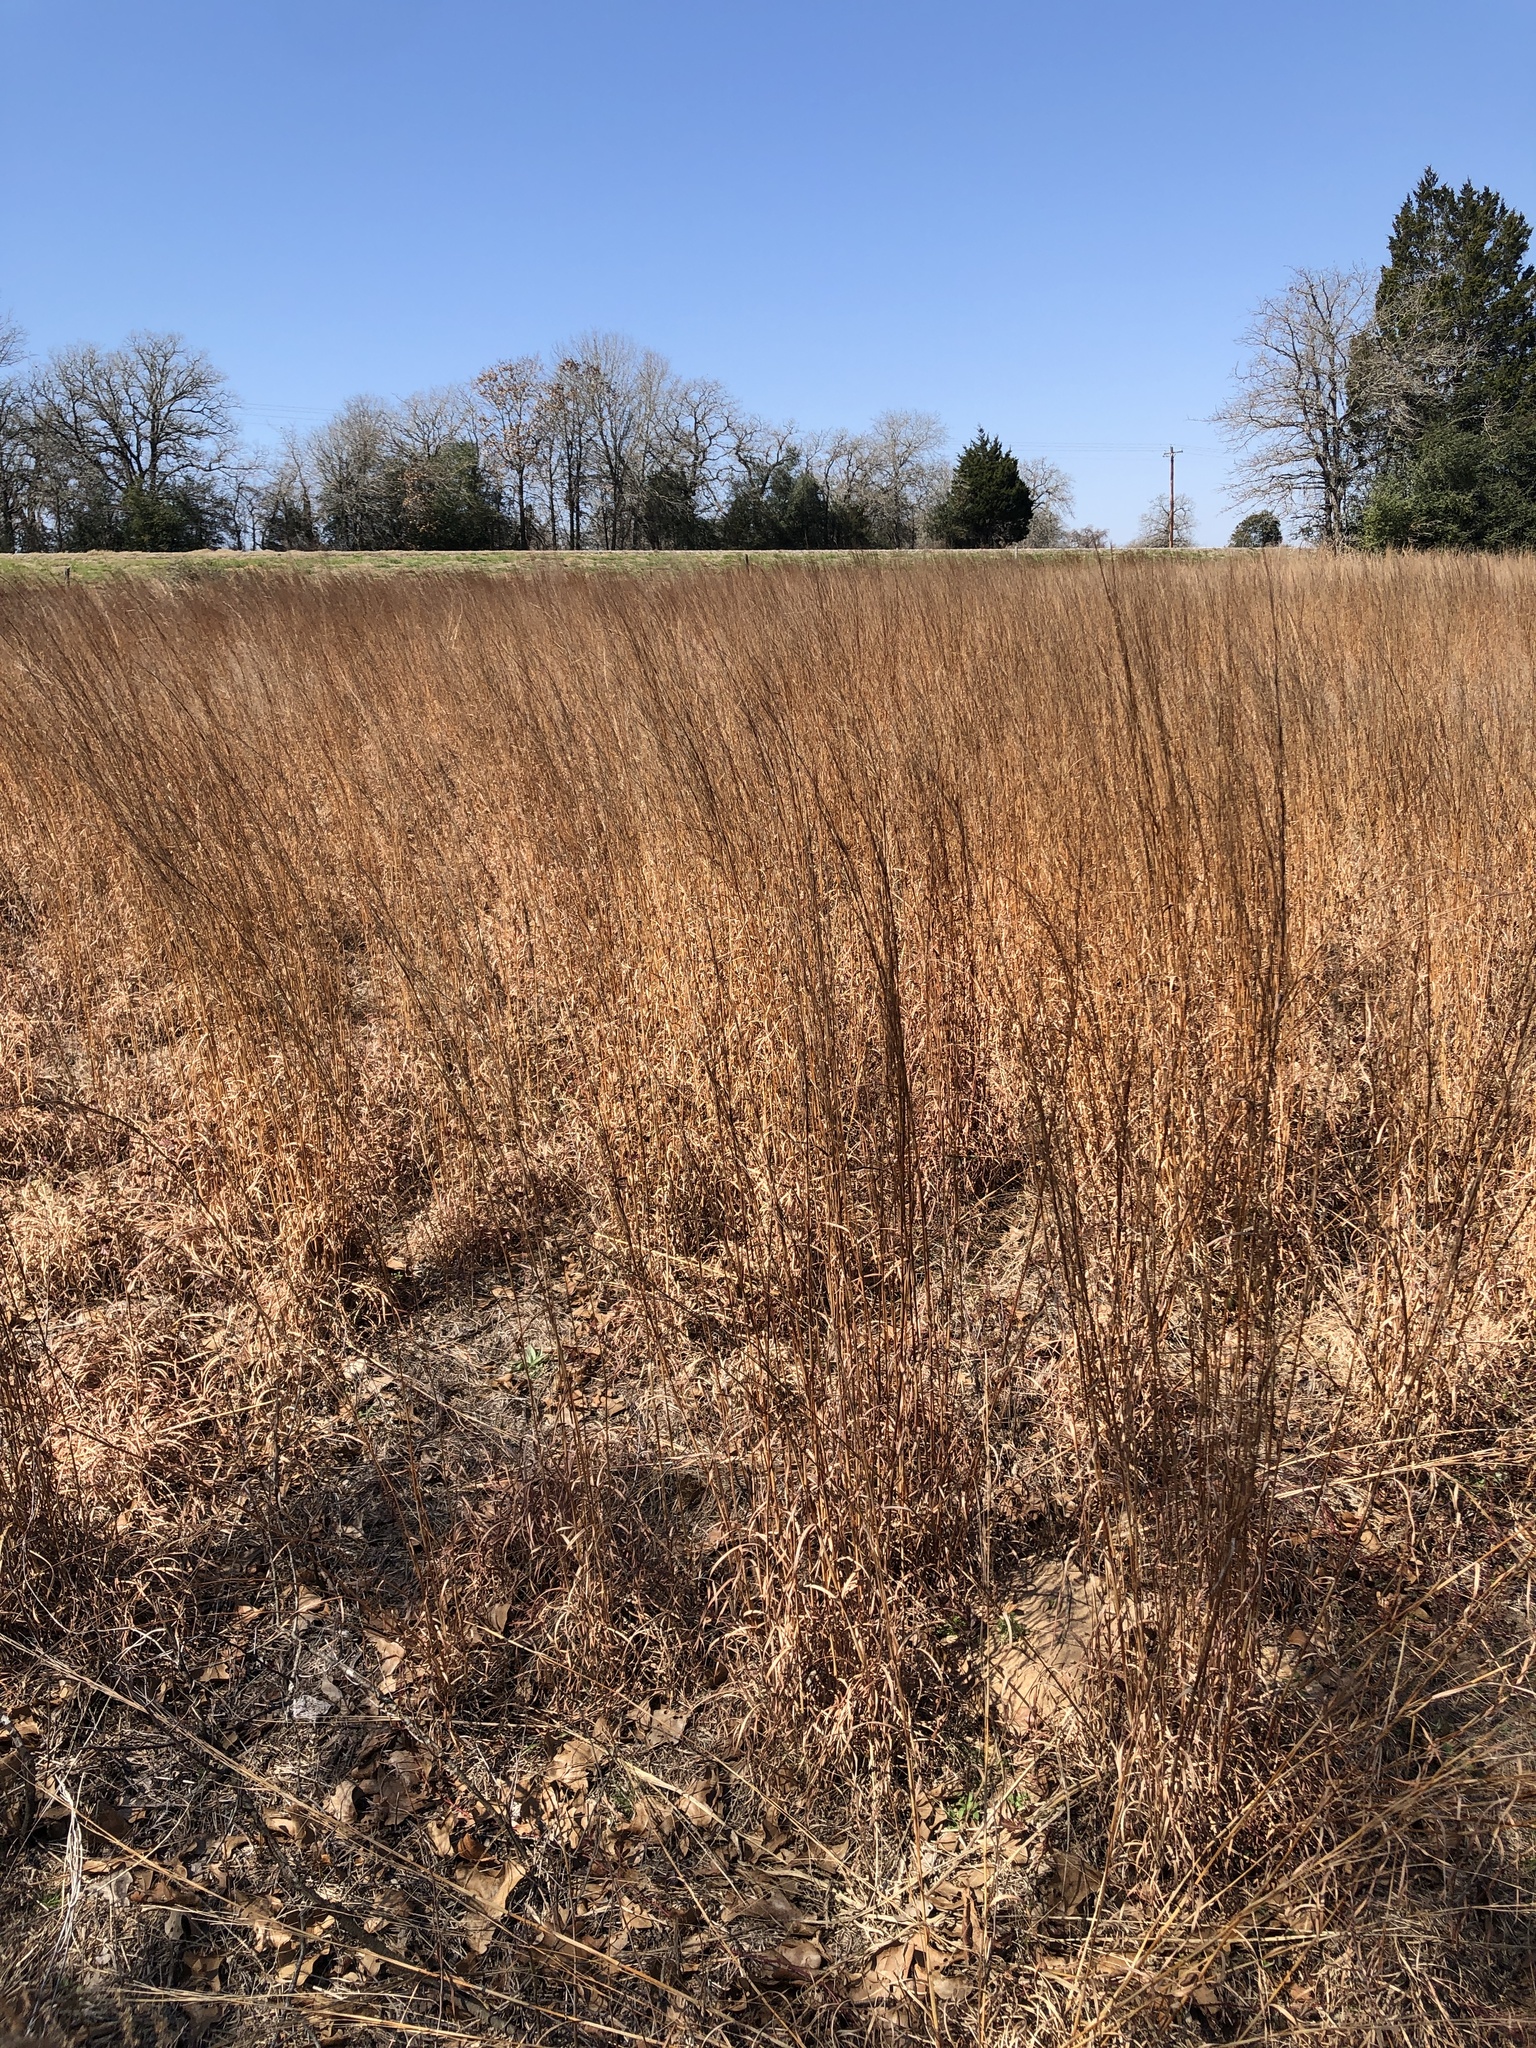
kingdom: Plantae
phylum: Tracheophyta
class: Liliopsida
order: Poales
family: Poaceae
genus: Schizachyrium
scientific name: Schizachyrium scoparium
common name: Little bluestem
